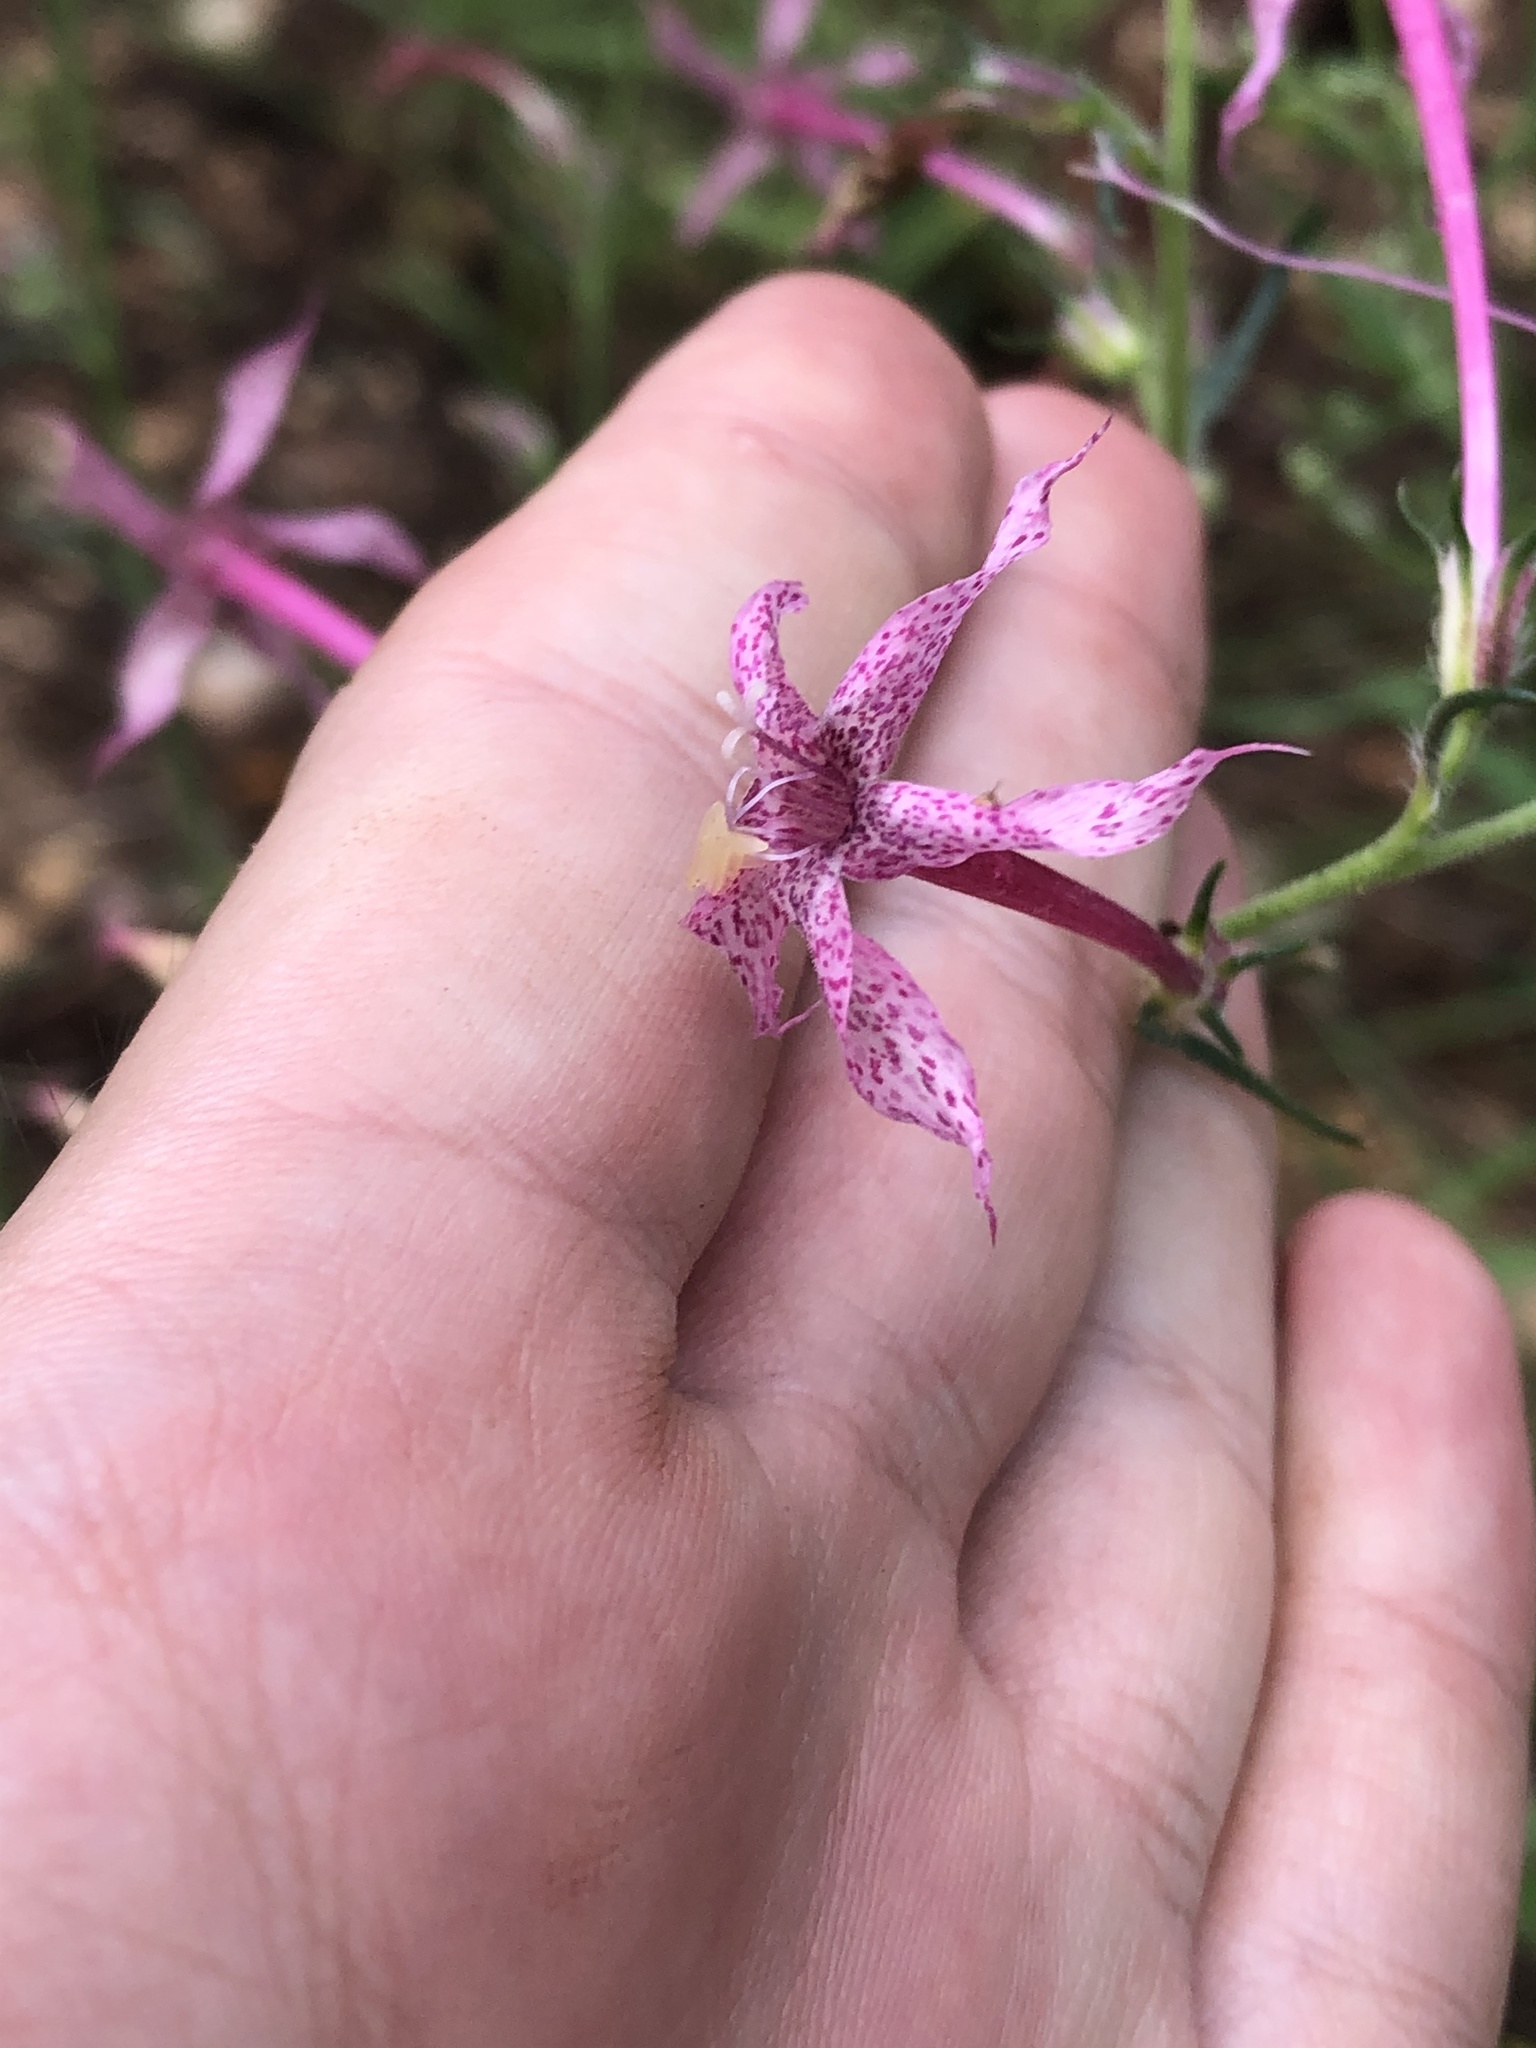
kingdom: Plantae
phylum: Tracheophyta
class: Magnoliopsida
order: Ericales
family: Polemoniaceae
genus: Ipomopsis
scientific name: Ipomopsis macrosiphon
